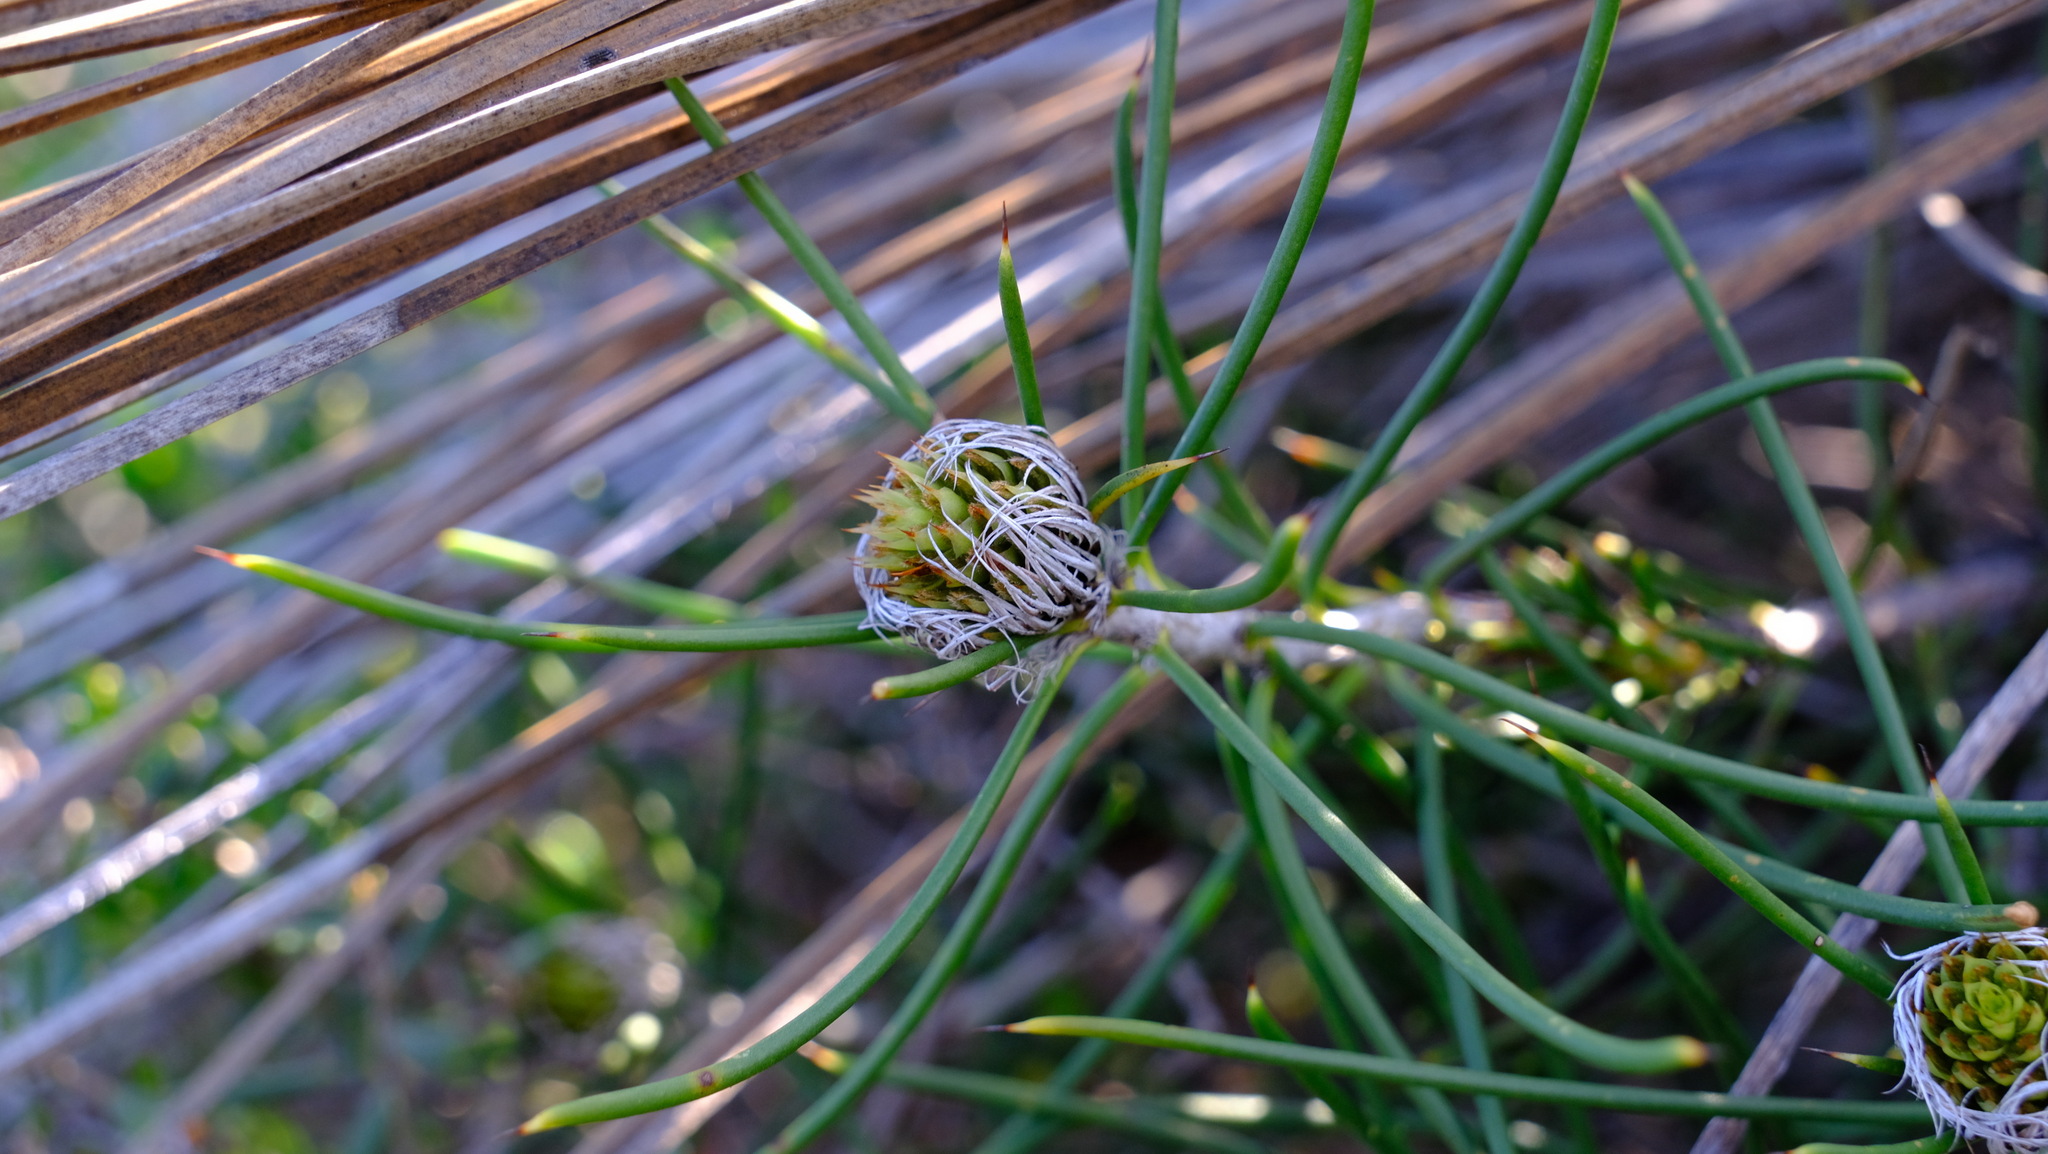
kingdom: Plantae
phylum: Tracheophyta
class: Magnoliopsida
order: Proteales
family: Proteaceae
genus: Petrophile
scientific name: Petrophile pilostyla
